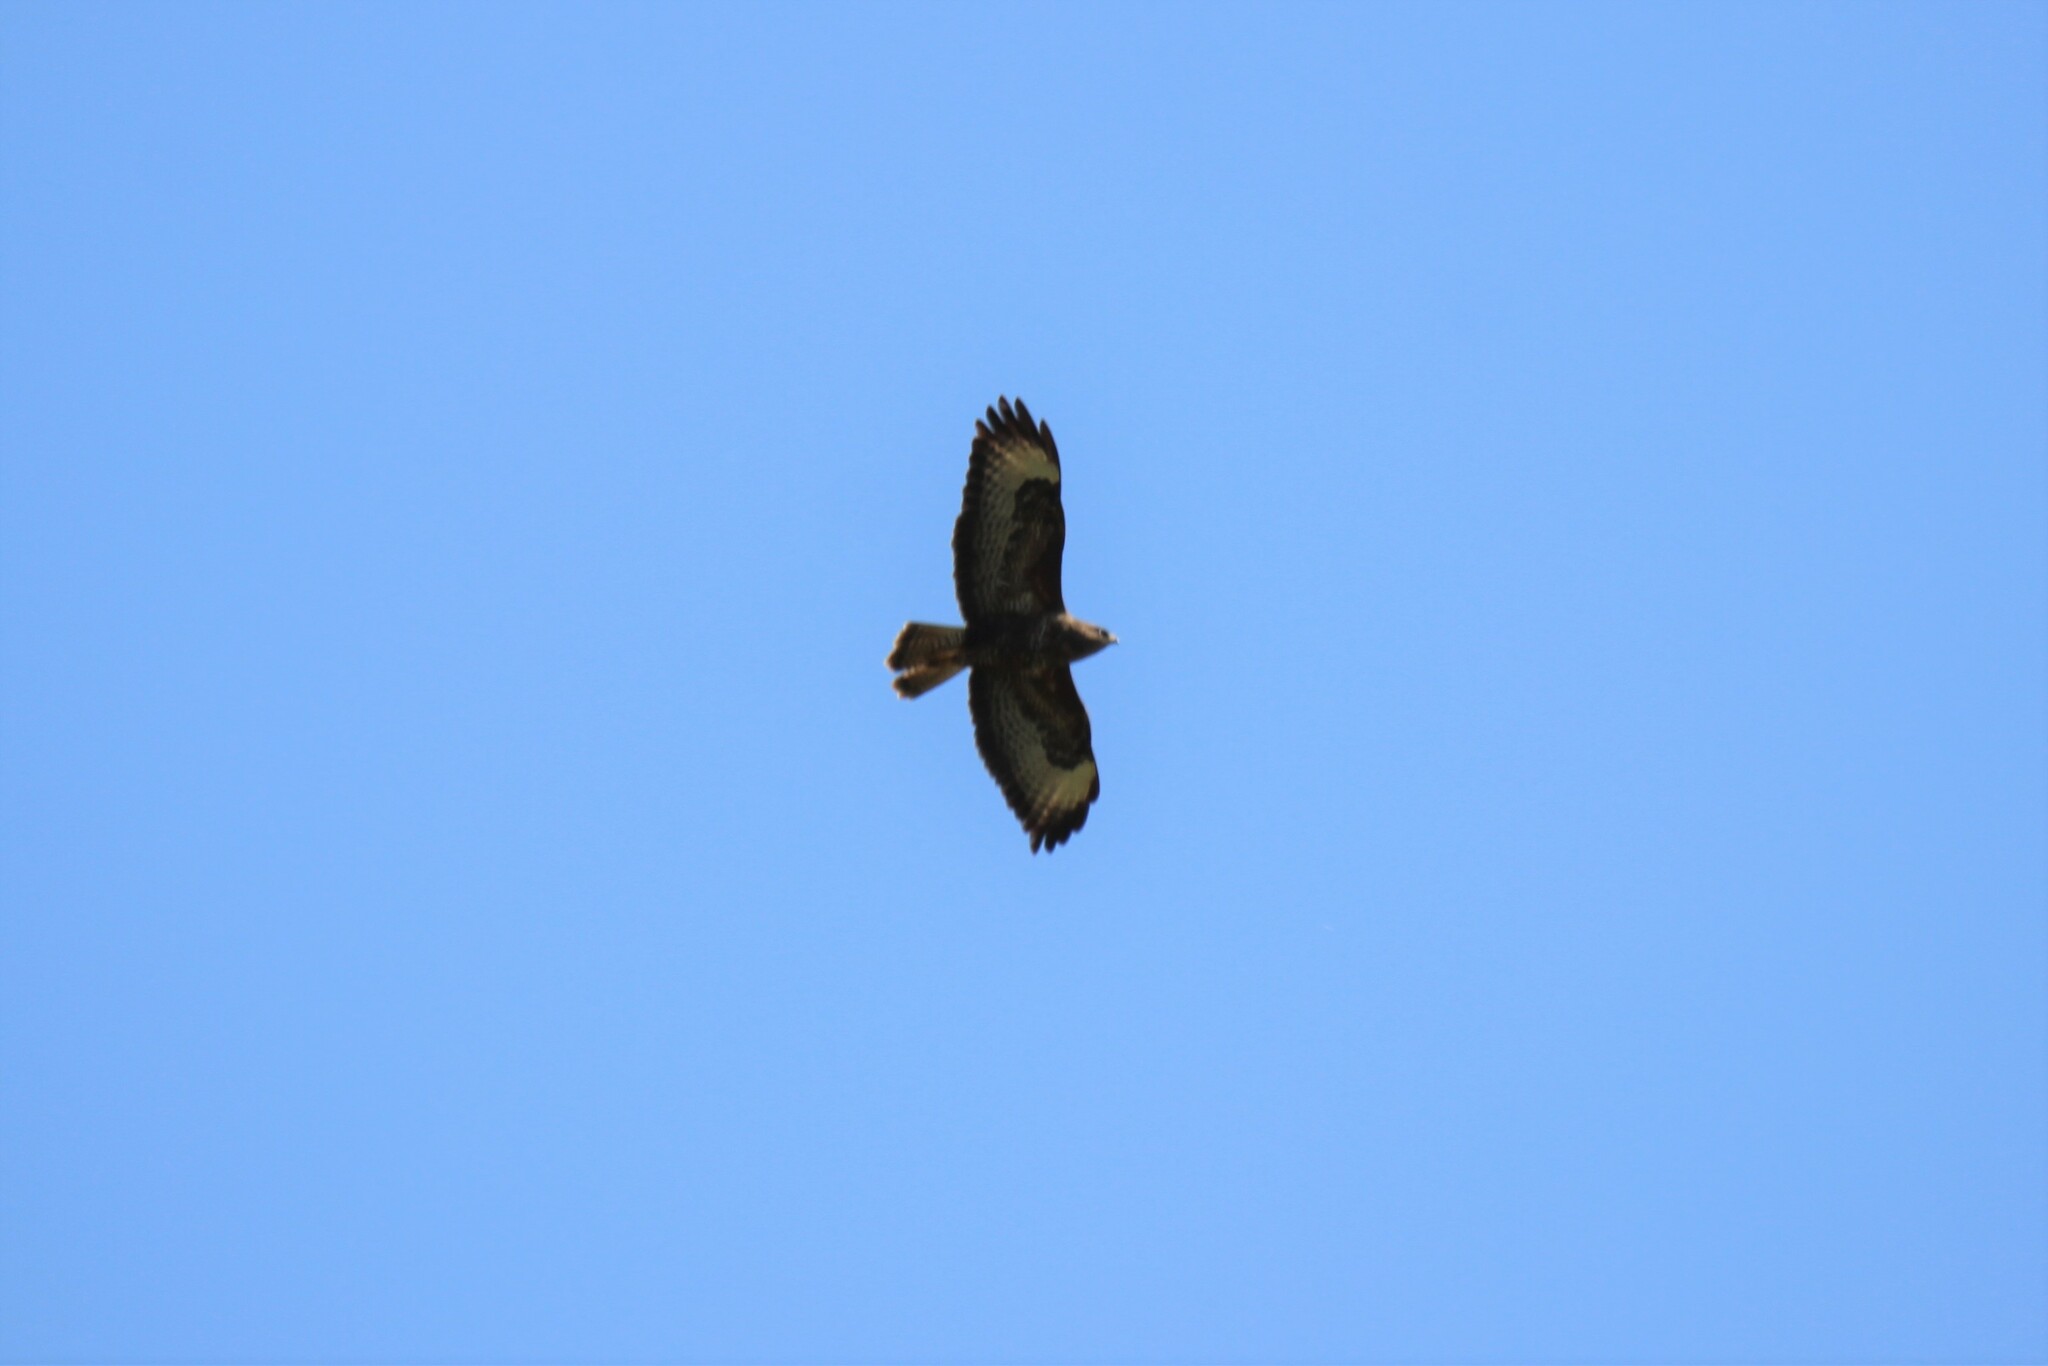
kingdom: Animalia
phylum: Chordata
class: Aves
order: Accipitriformes
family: Accipitridae
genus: Buteo
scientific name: Buteo buteo
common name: Common buzzard
